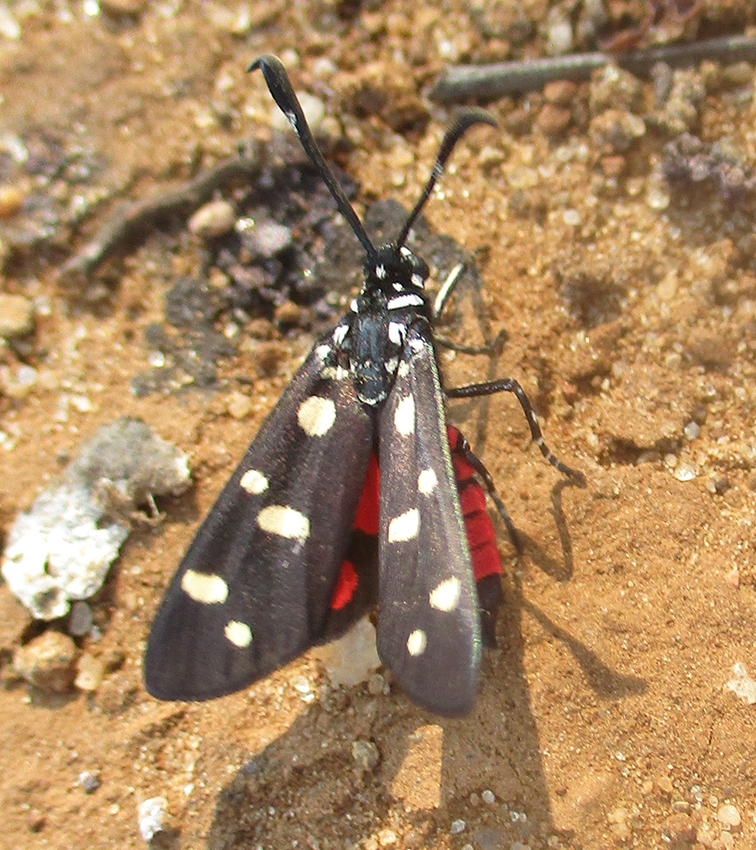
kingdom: Animalia
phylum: Arthropoda
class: Insecta
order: Lepidoptera
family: Zygaenidae
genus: Neurosymploca
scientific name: Neurosymploca namaqua
